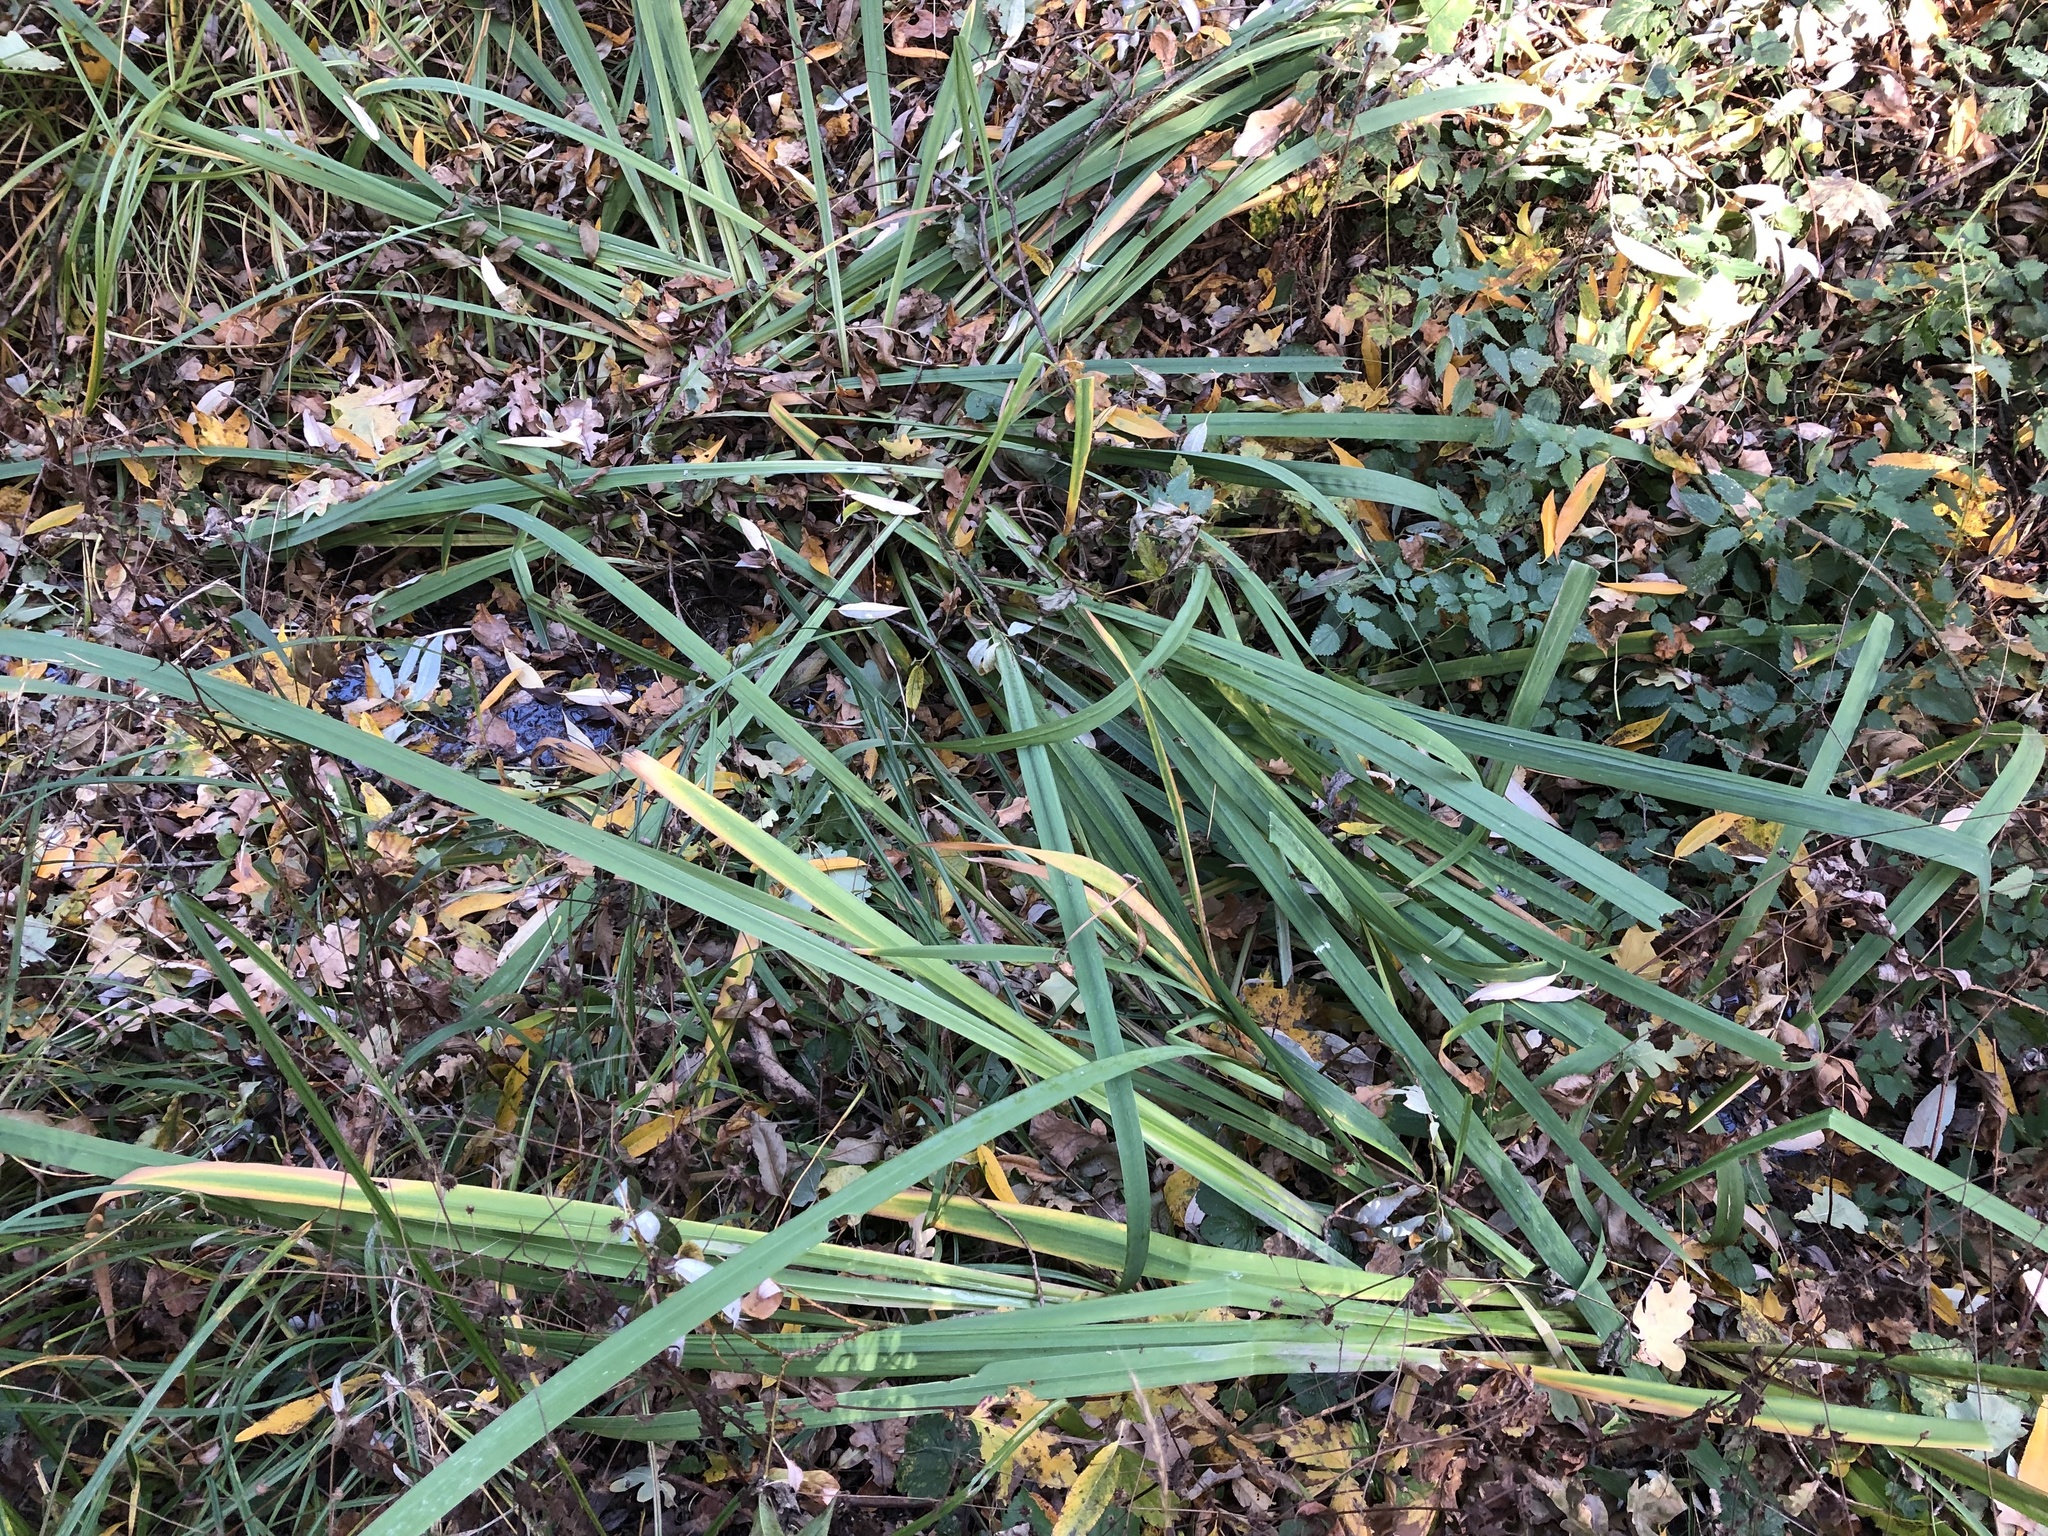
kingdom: Plantae
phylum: Tracheophyta
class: Liliopsida
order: Asparagales
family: Iridaceae
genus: Iris
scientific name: Iris pseudacorus
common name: Yellow flag
